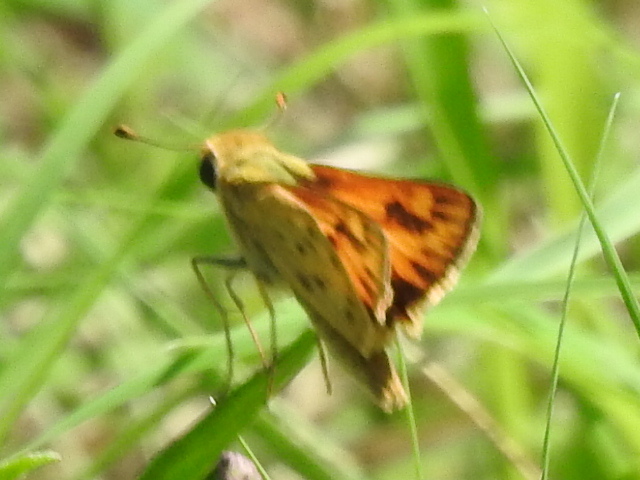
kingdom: Animalia
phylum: Arthropoda
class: Insecta
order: Lepidoptera
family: Hesperiidae
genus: Hylephila
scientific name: Hylephila phyleus
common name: Fiery skipper
